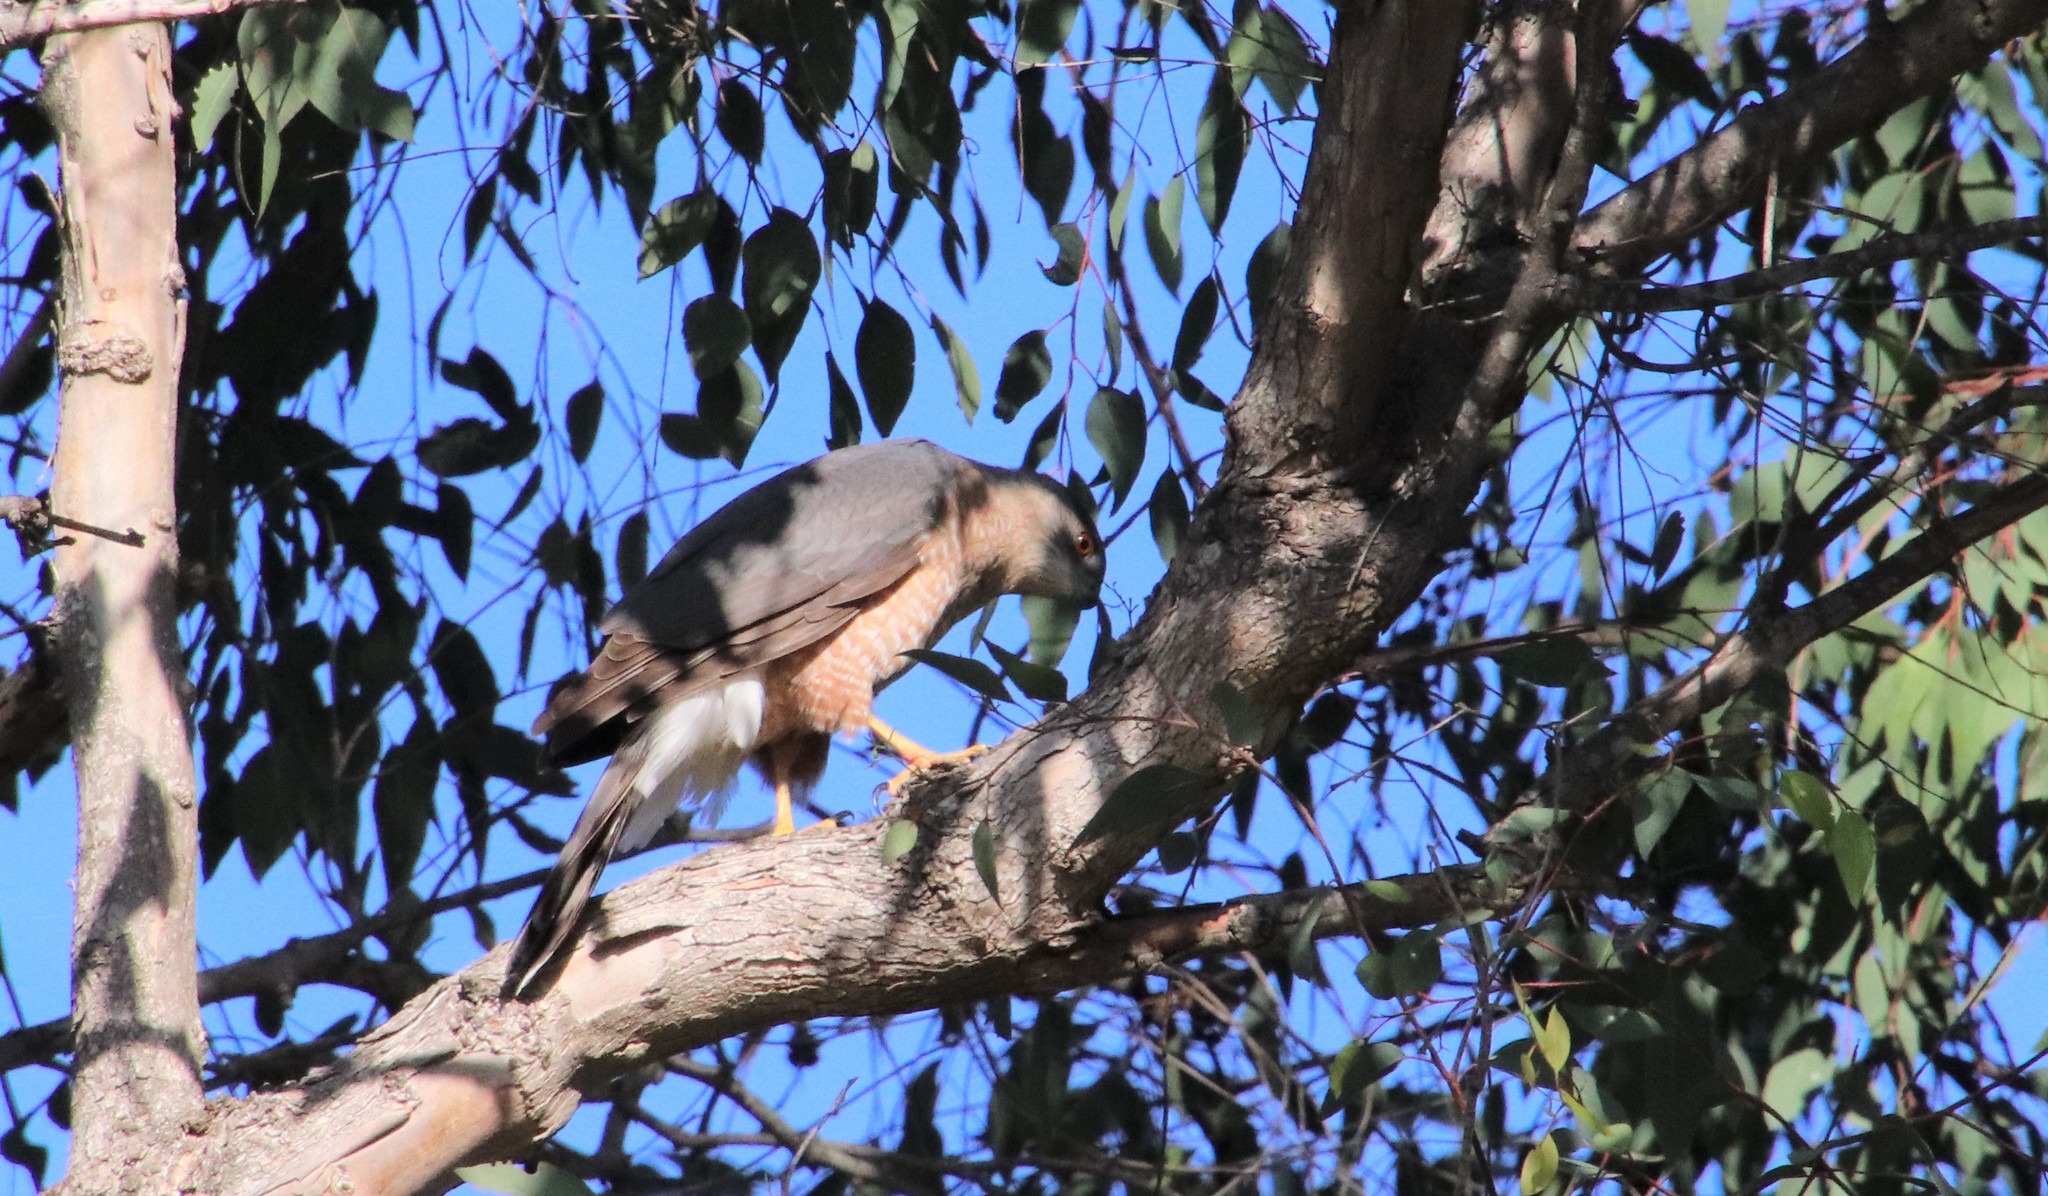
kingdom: Animalia
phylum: Chordata
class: Aves
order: Accipitriformes
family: Accipitridae
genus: Accipiter
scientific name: Accipiter cooperii
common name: Cooper's hawk
